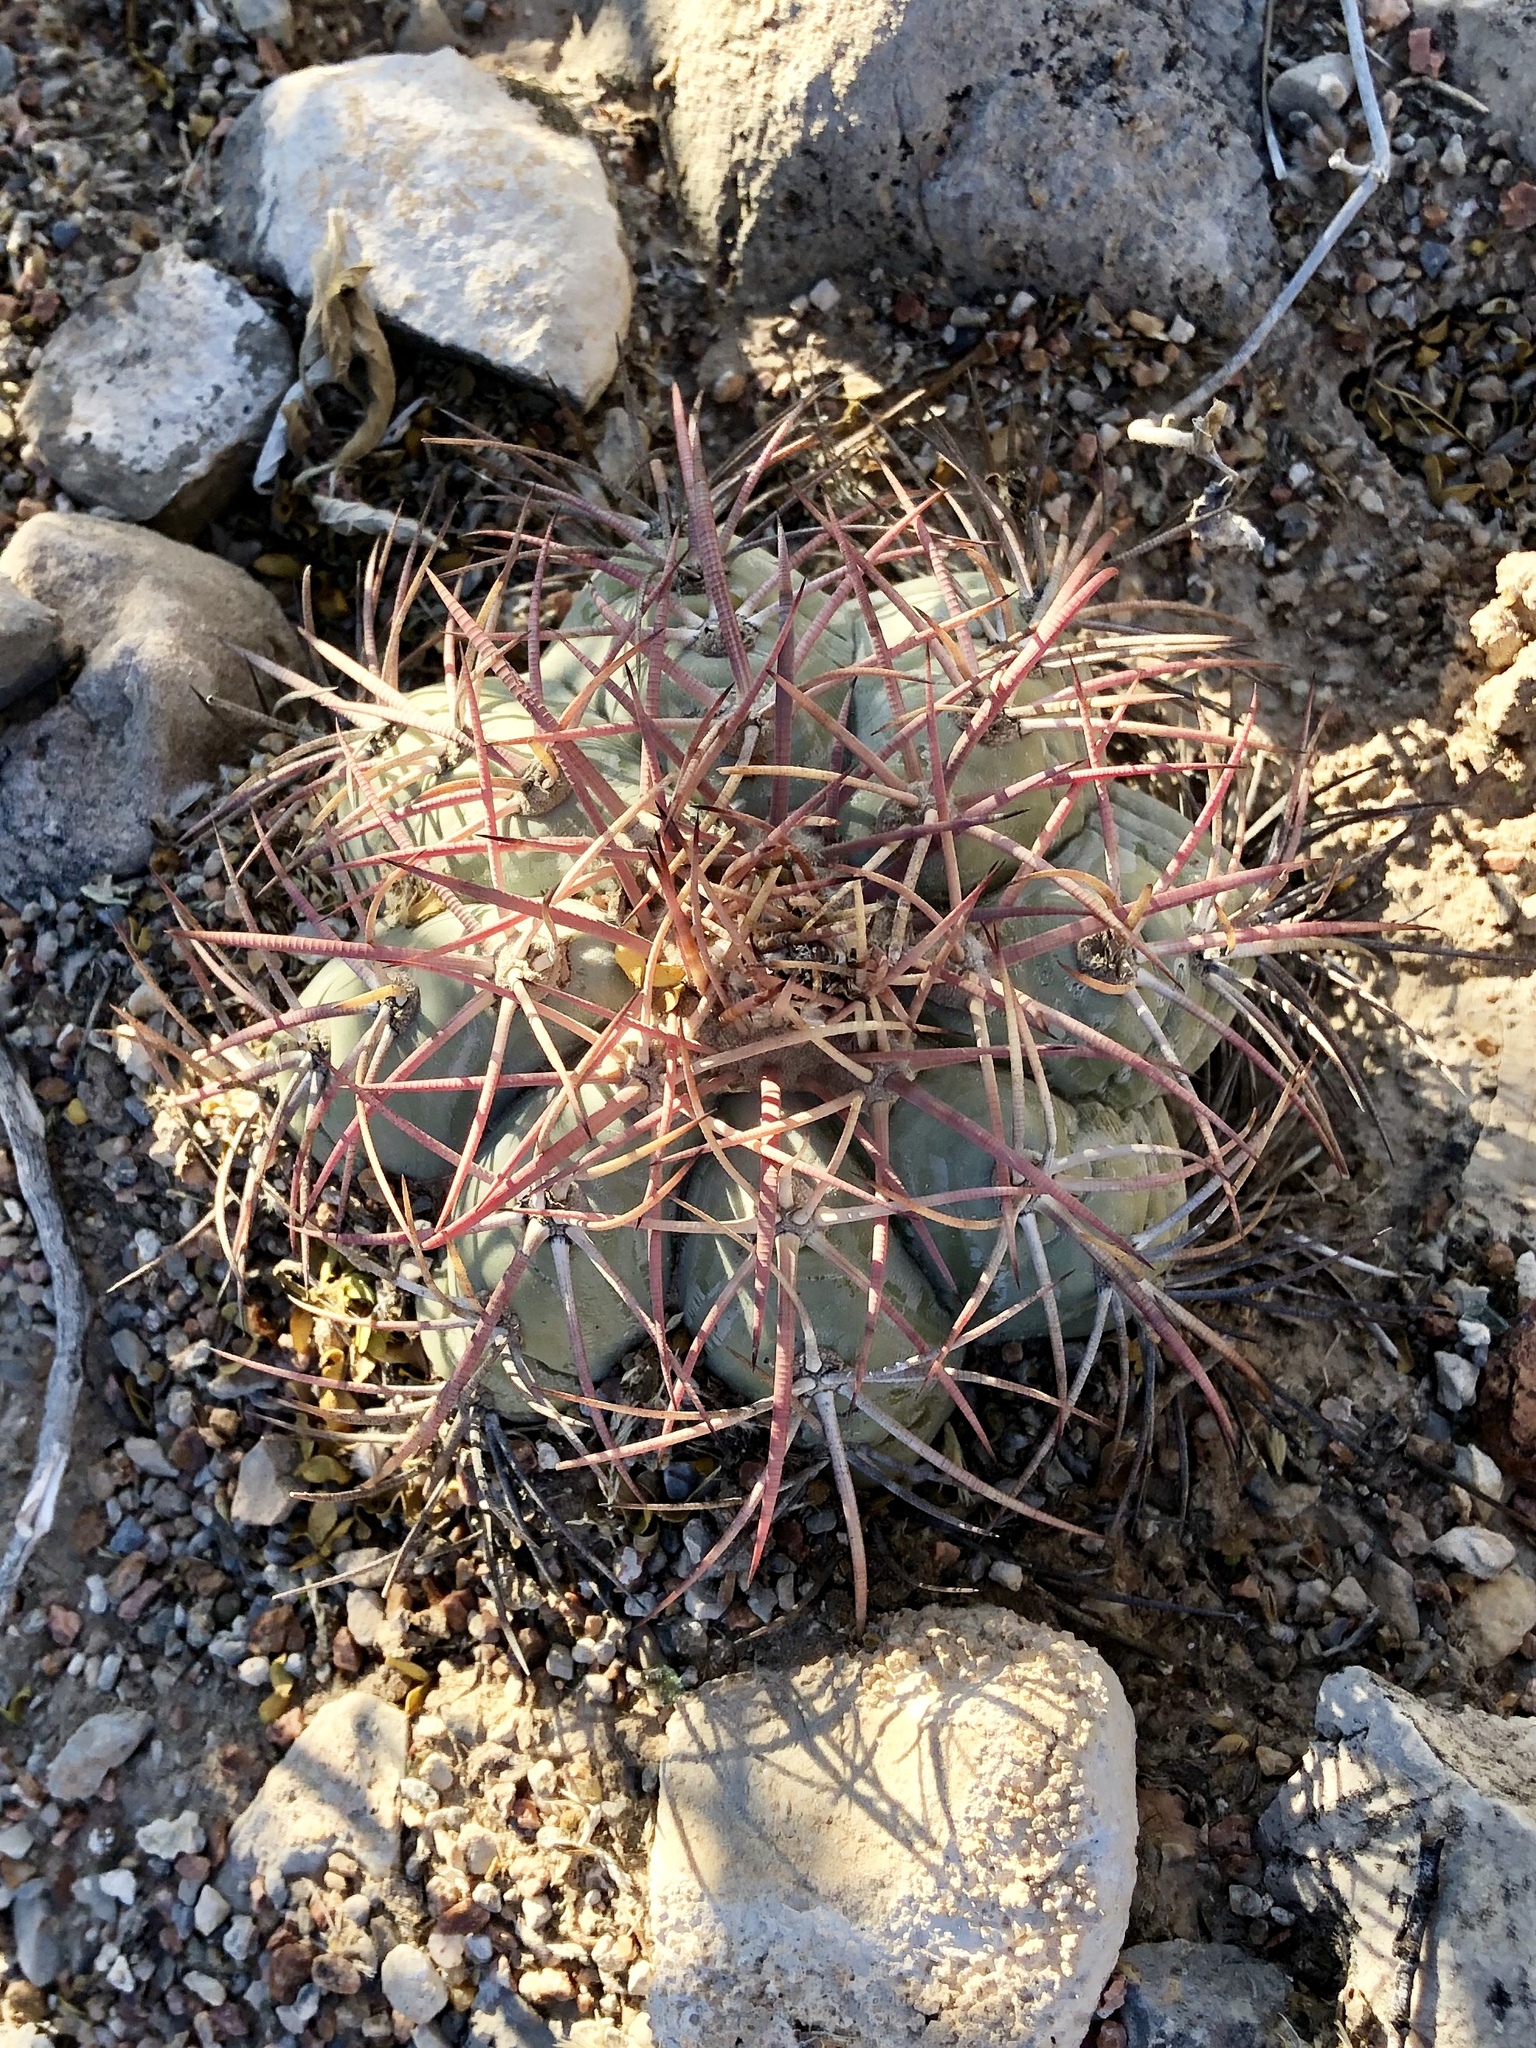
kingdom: Plantae
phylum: Tracheophyta
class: Magnoliopsida
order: Caryophyllales
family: Cactaceae
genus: Echinocactus
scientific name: Echinocactus horizonthalonius
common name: Devilshead
